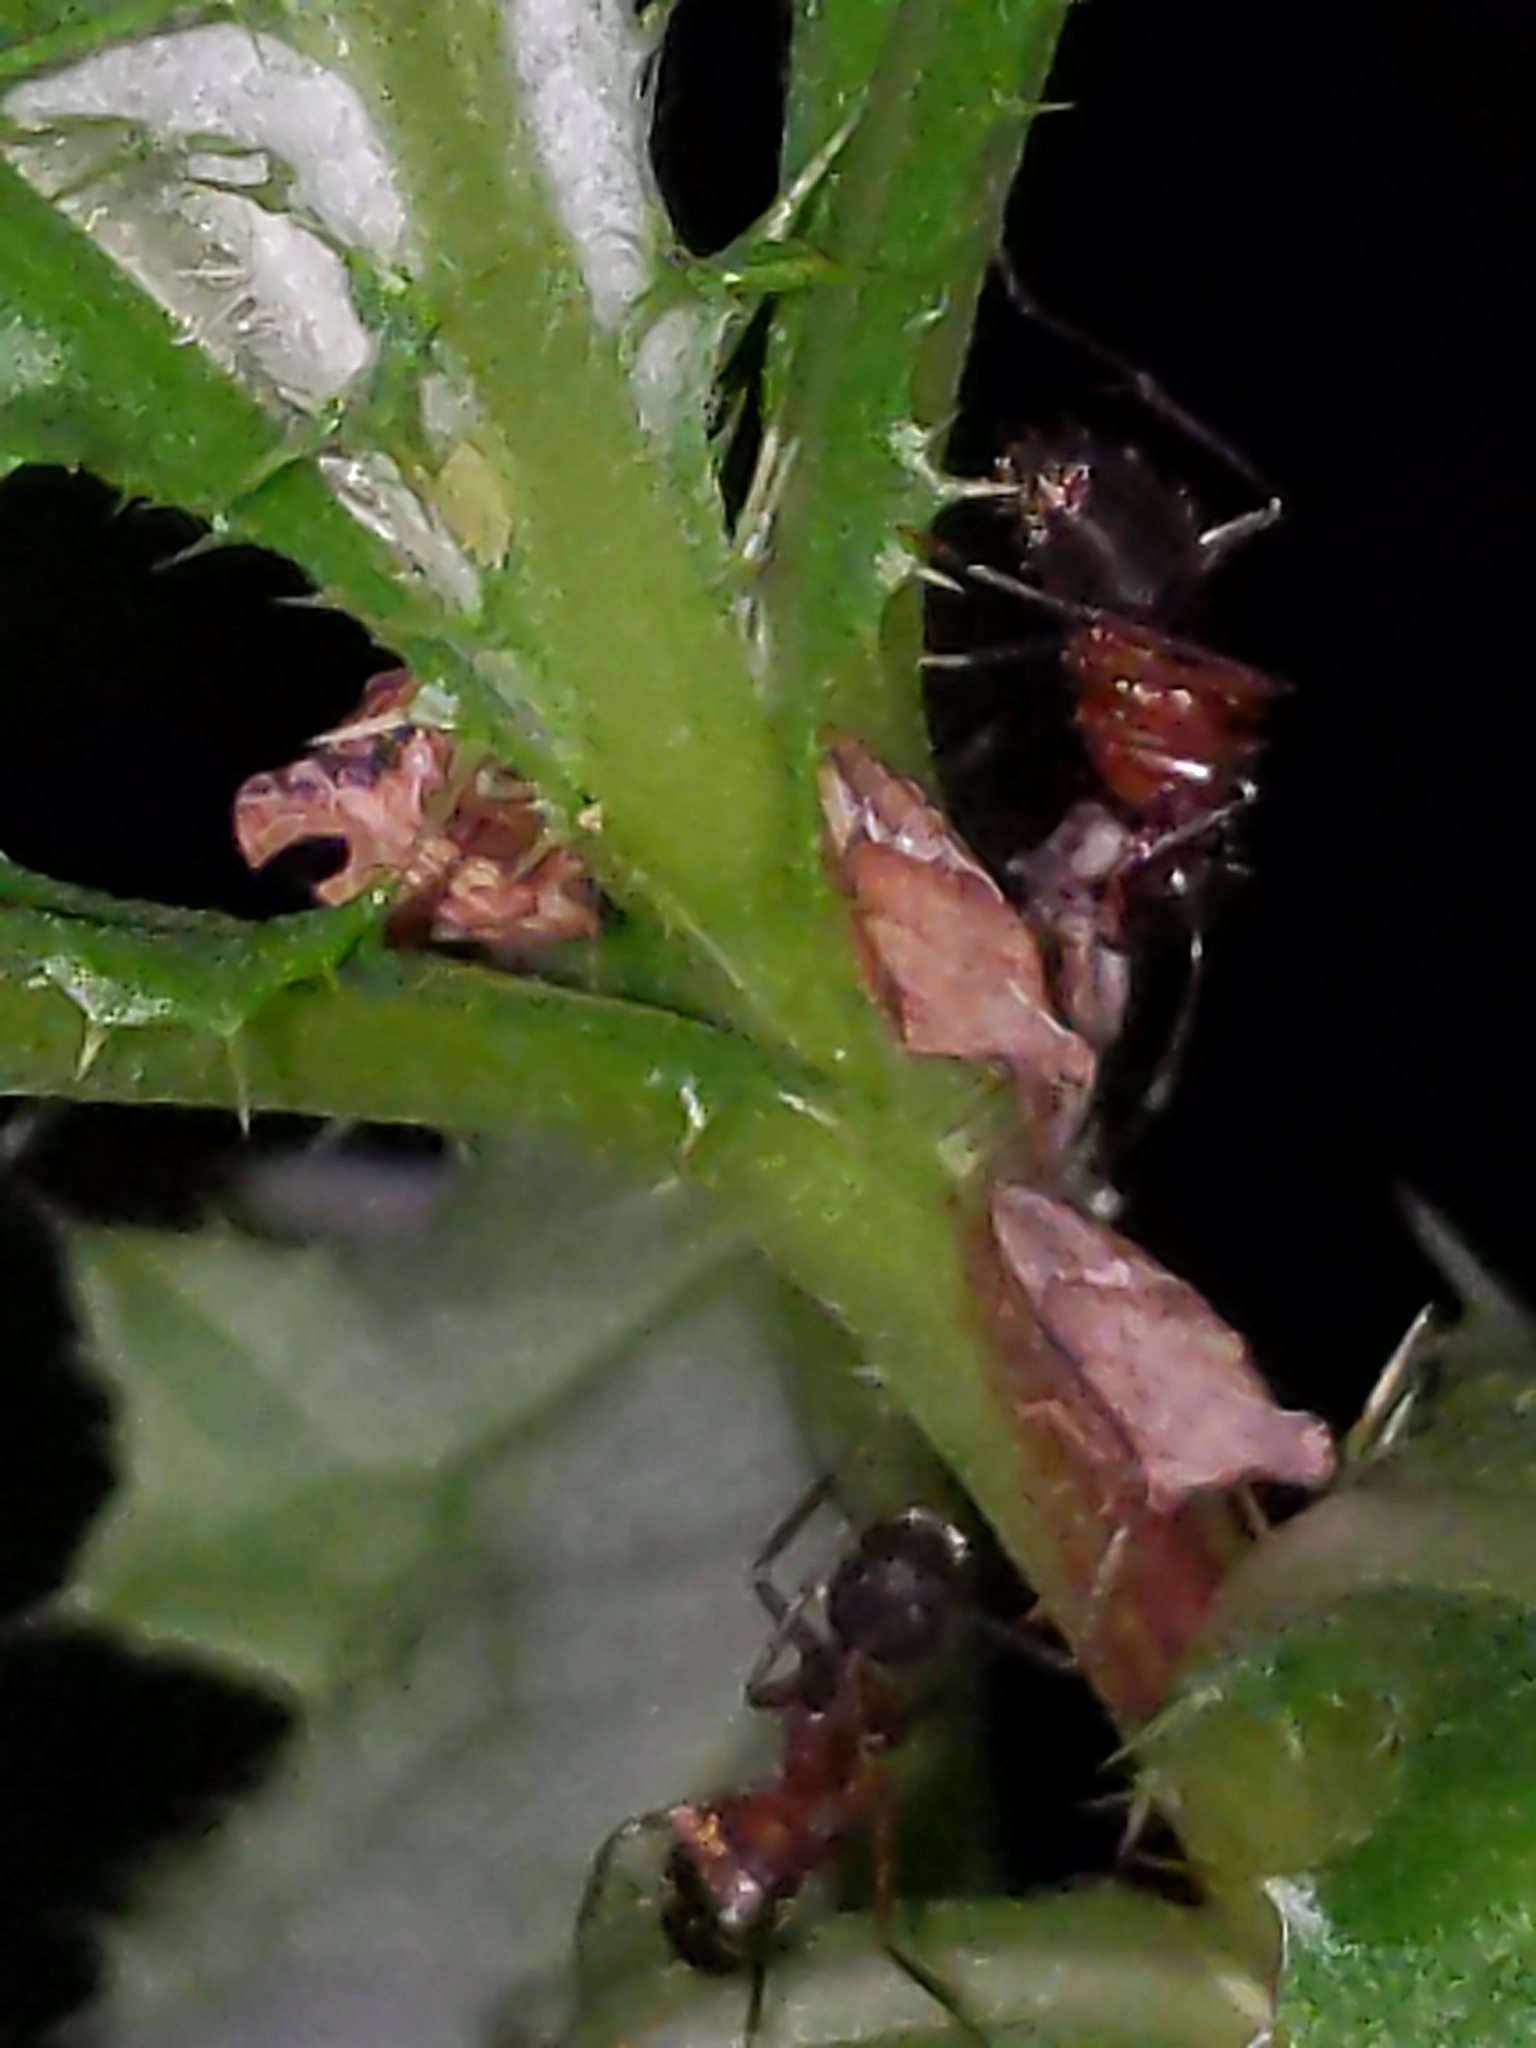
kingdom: Animalia
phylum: Arthropoda
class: Insecta
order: Hymenoptera
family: Formicidae
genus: Camponotus
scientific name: Camponotus chromaiodes
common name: Red carpenter ant
